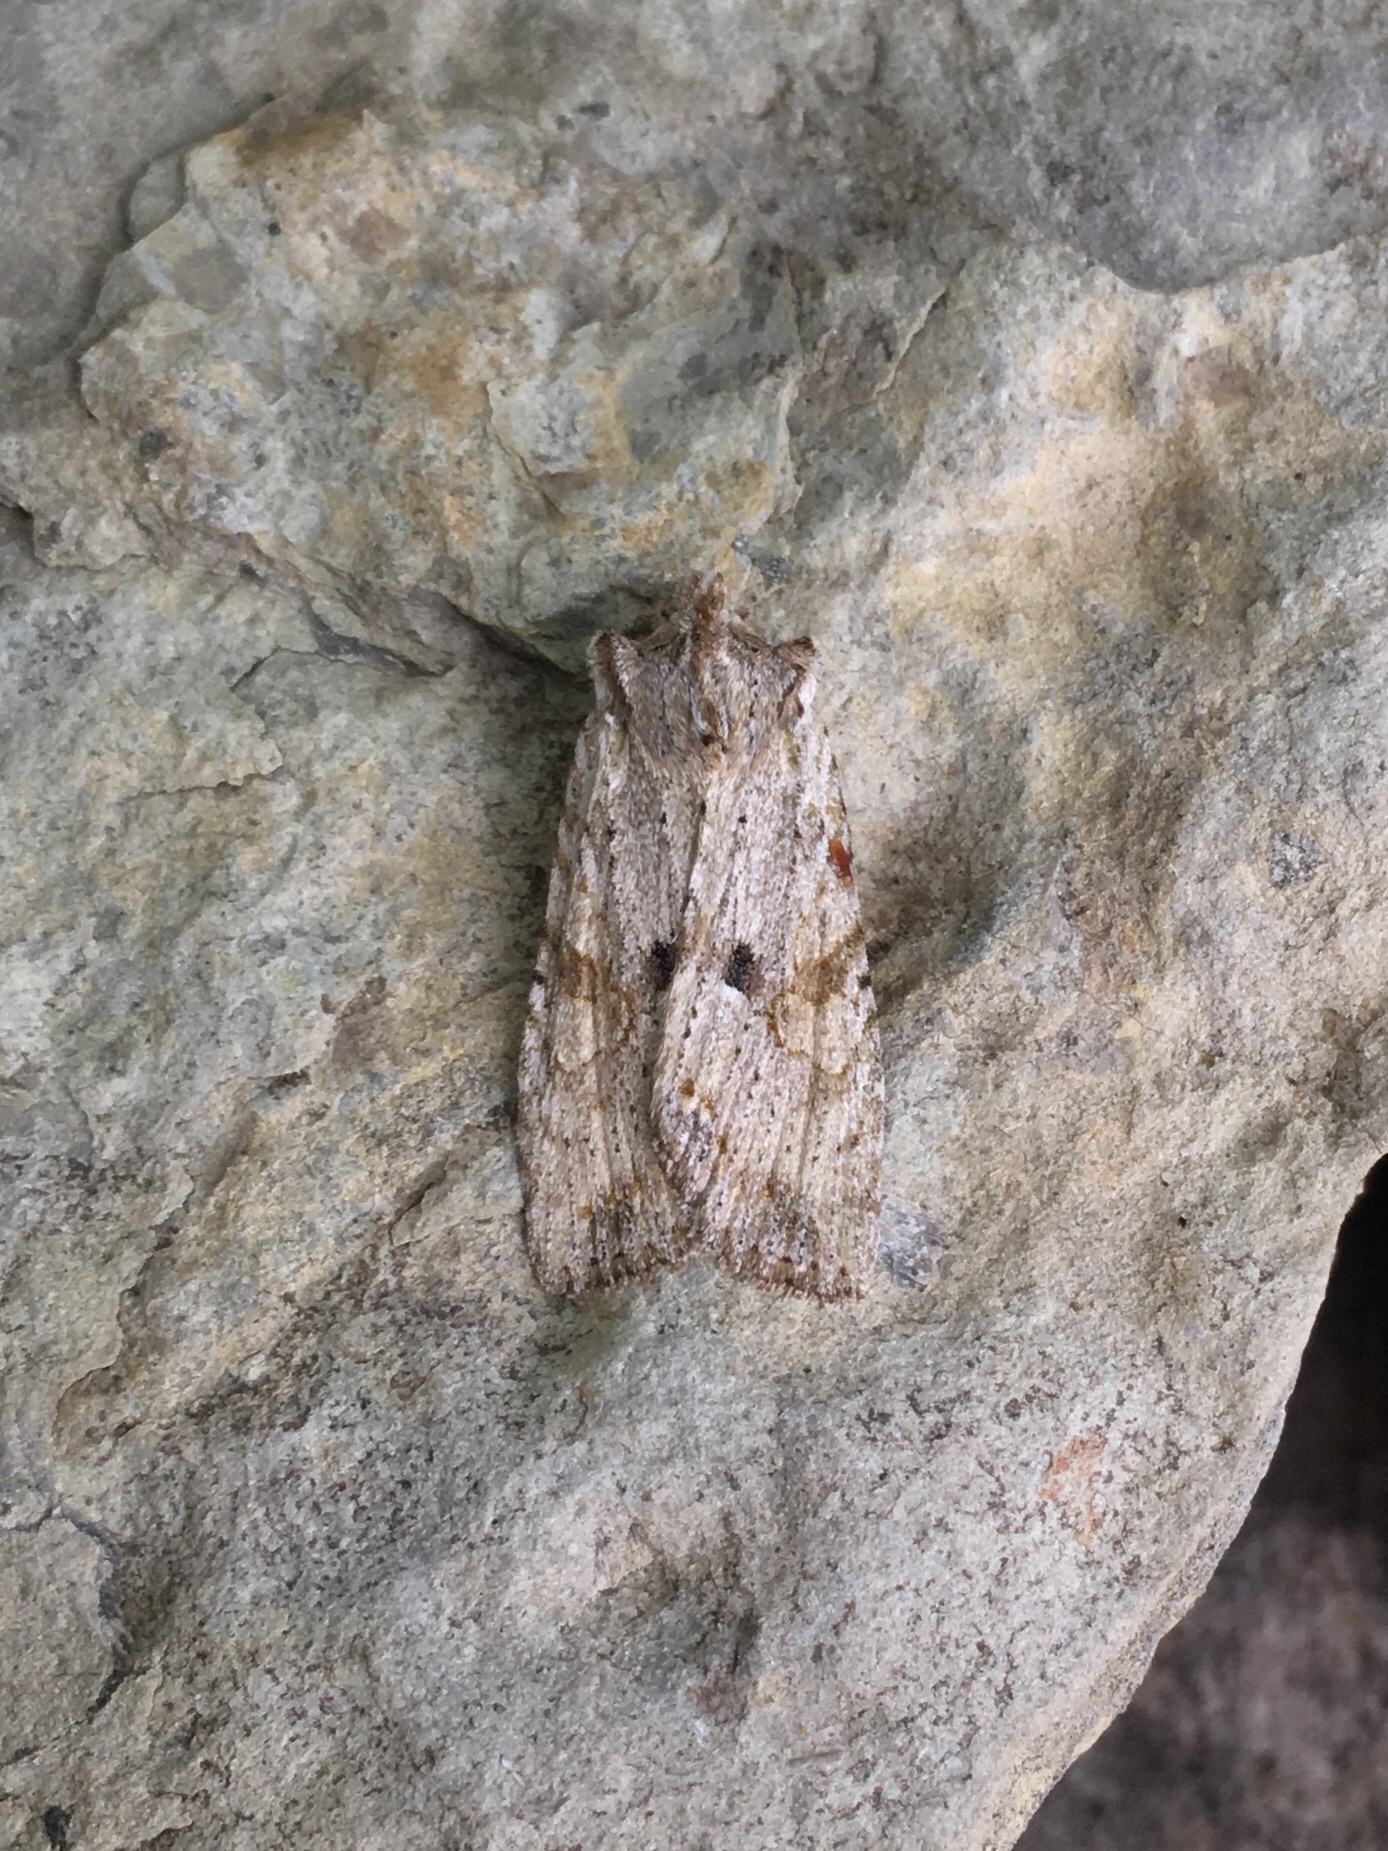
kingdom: Animalia
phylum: Arthropoda
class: Insecta
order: Lepidoptera
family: Noctuidae
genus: Lithophane
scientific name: Lithophane patefacta
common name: Dimorphic pinion moth
